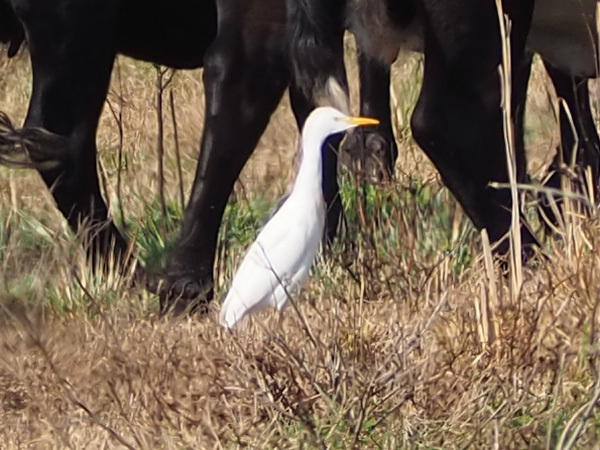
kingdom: Animalia
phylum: Chordata
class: Aves
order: Pelecaniformes
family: Ardeidae
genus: Bubulcus
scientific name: Bubulcus ibis
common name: Cattle egret
